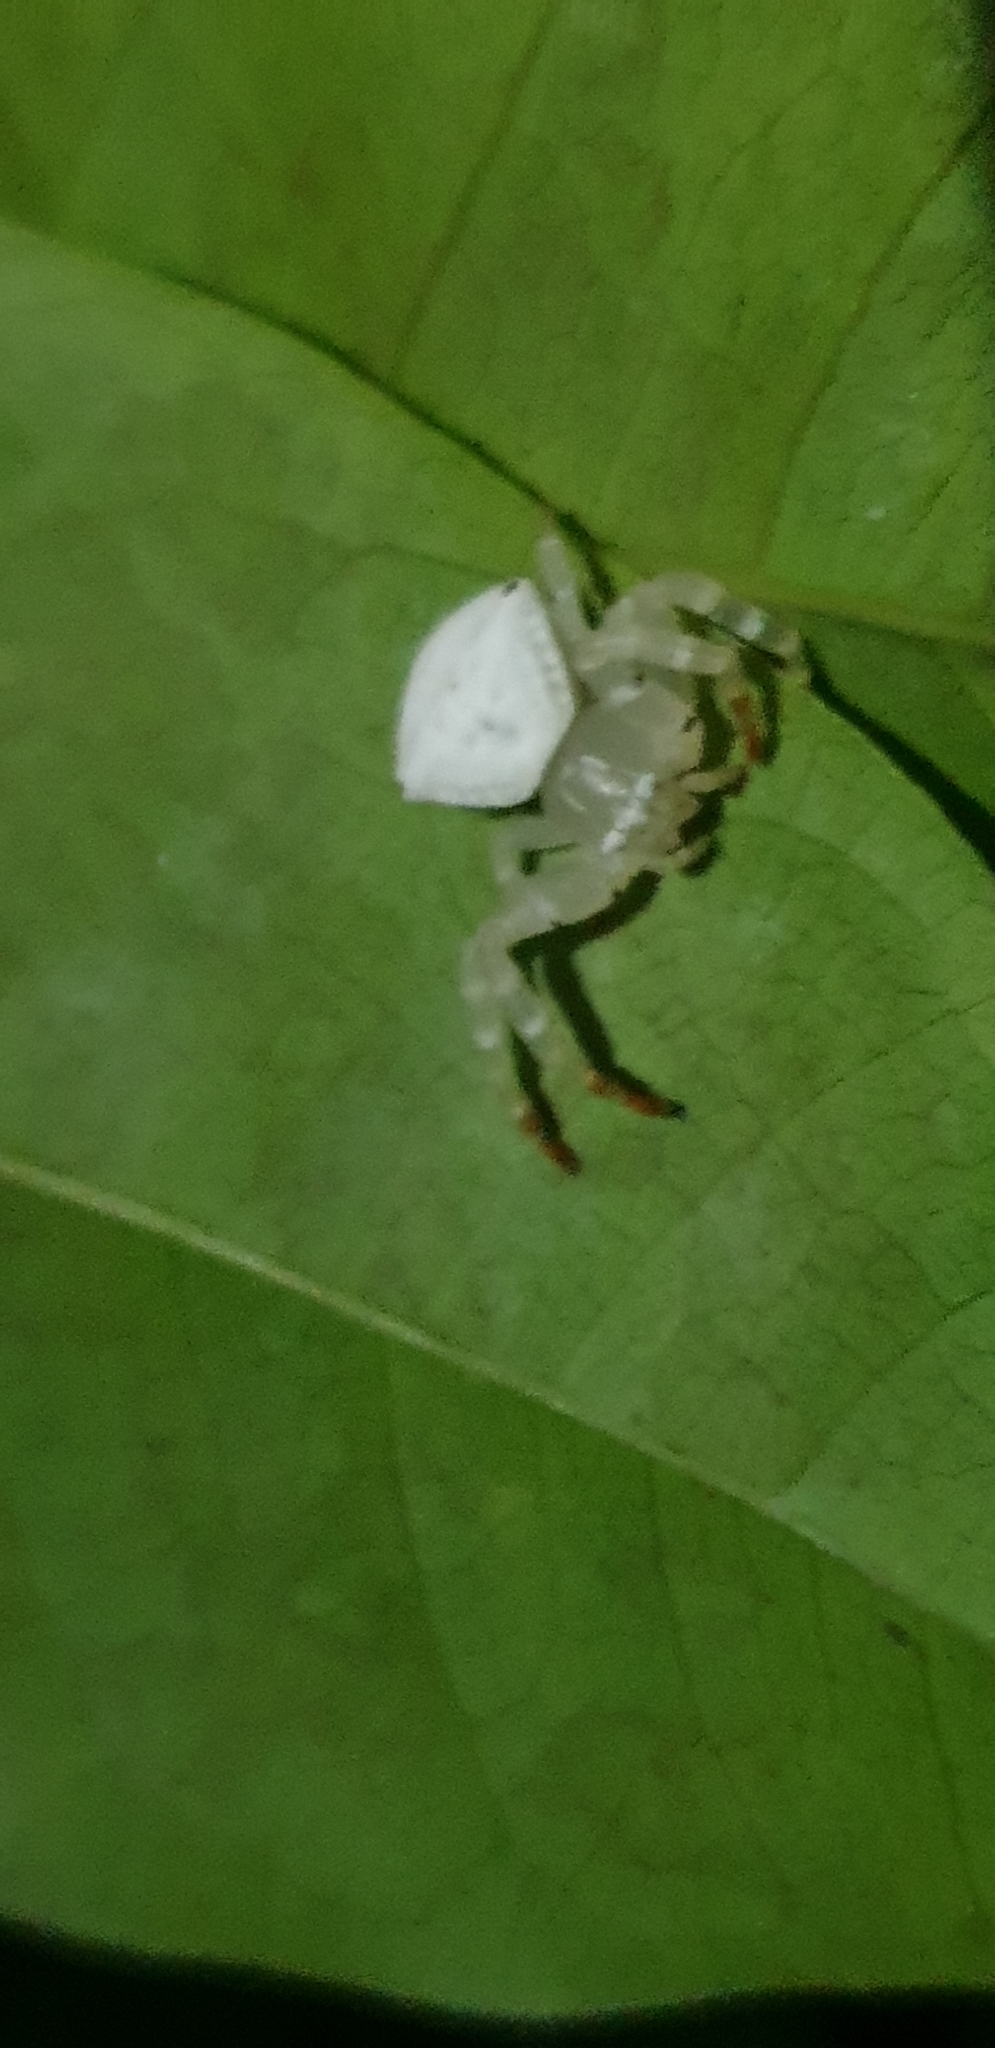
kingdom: Animalia
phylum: Arthropoda
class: Arachnida
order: Araneae
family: Thomisidae
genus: Thomisus
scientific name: Thomisus spectabilis
